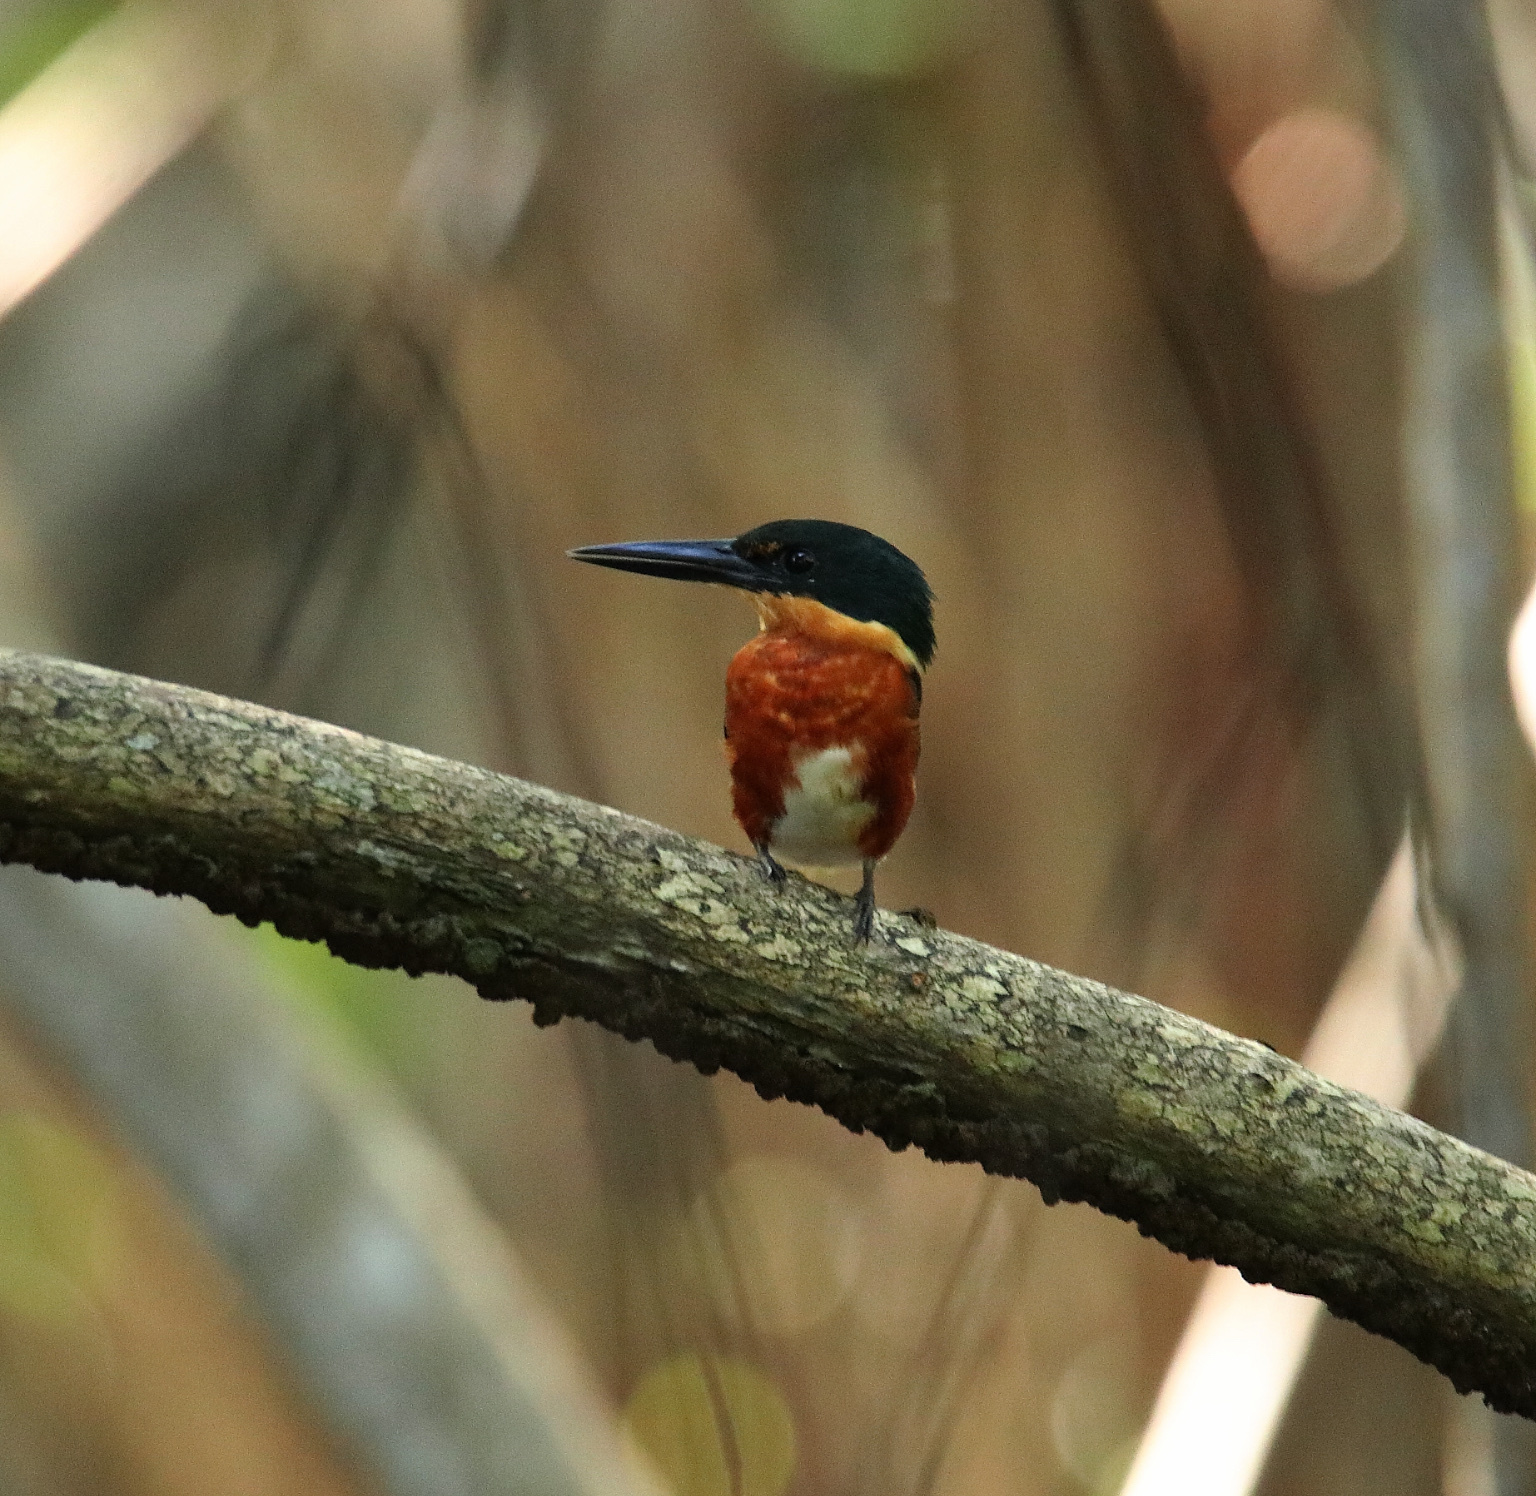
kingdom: Animalia
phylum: Chordata
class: Aves
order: Coraciiformes
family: Alcedinidae
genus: Chloroceryle
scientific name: Chloroceryle aenea
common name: American pygmy kingfisher
